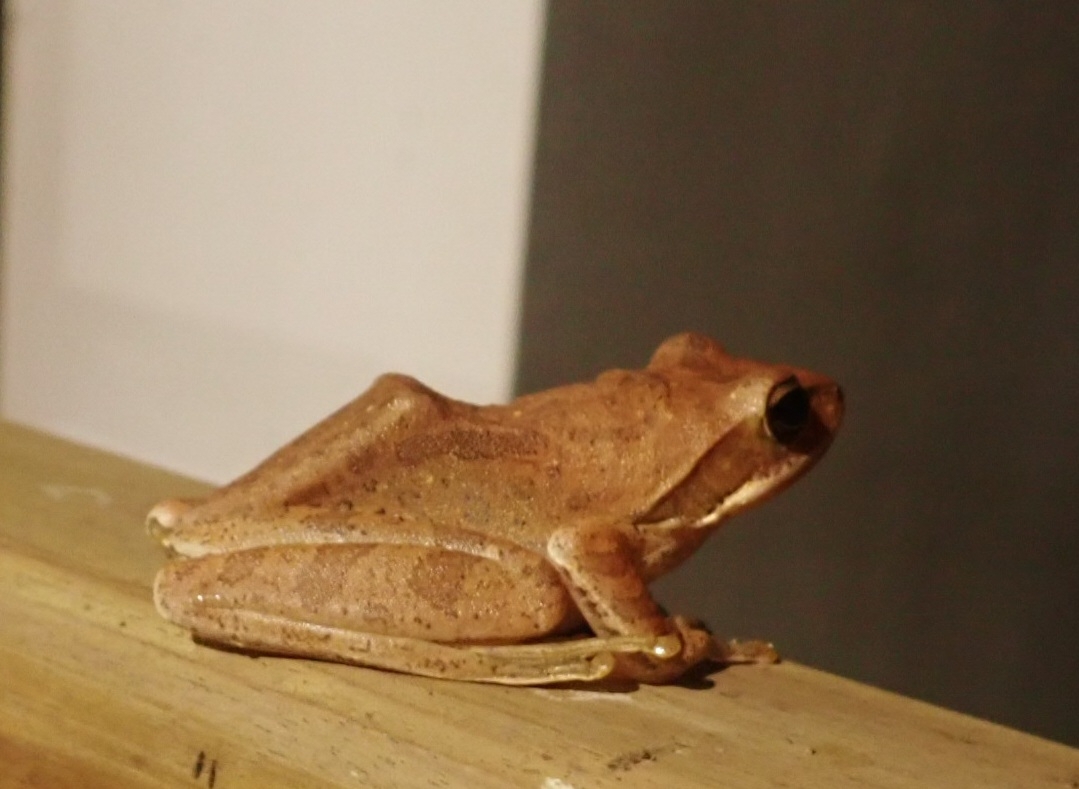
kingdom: Animalia
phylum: Chordata
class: Amphibia
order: Anura
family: Rhacophoridae
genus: Polypedates
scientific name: Polypedates maculatus
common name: Himalayan tree frog
